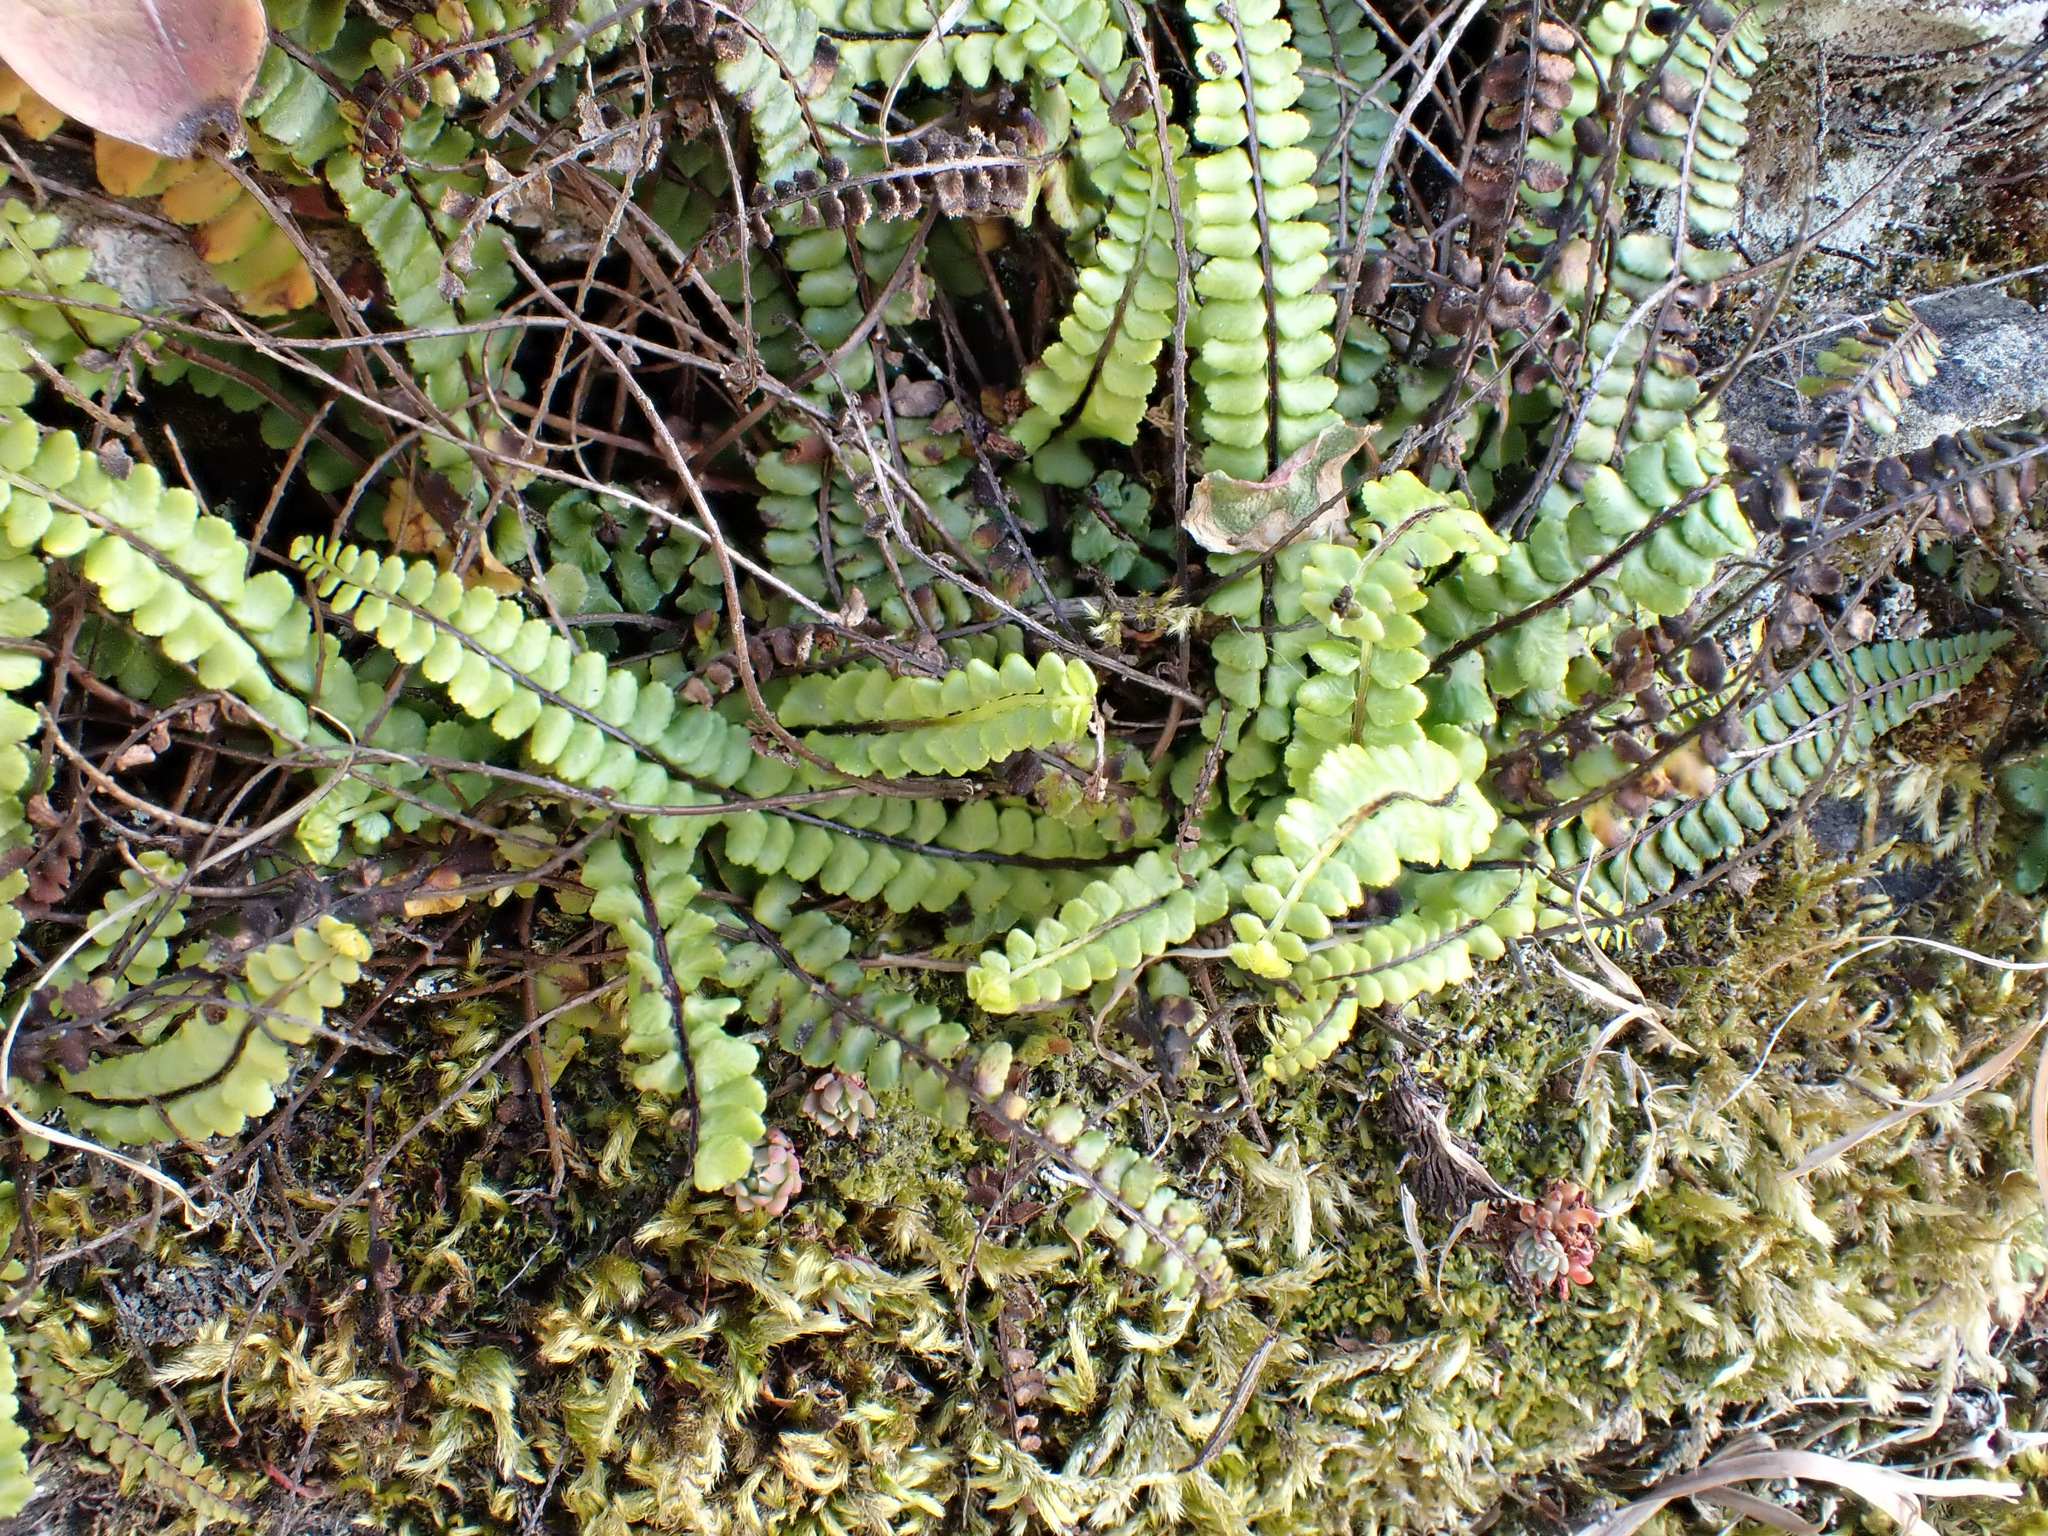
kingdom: Plantae
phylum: Tracheophyta
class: Polypodiopsida
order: Polypodiales
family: Aspleniaceae
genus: Asplenium
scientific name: Asplenium trichomanes
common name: Maidenhair spleenwort
